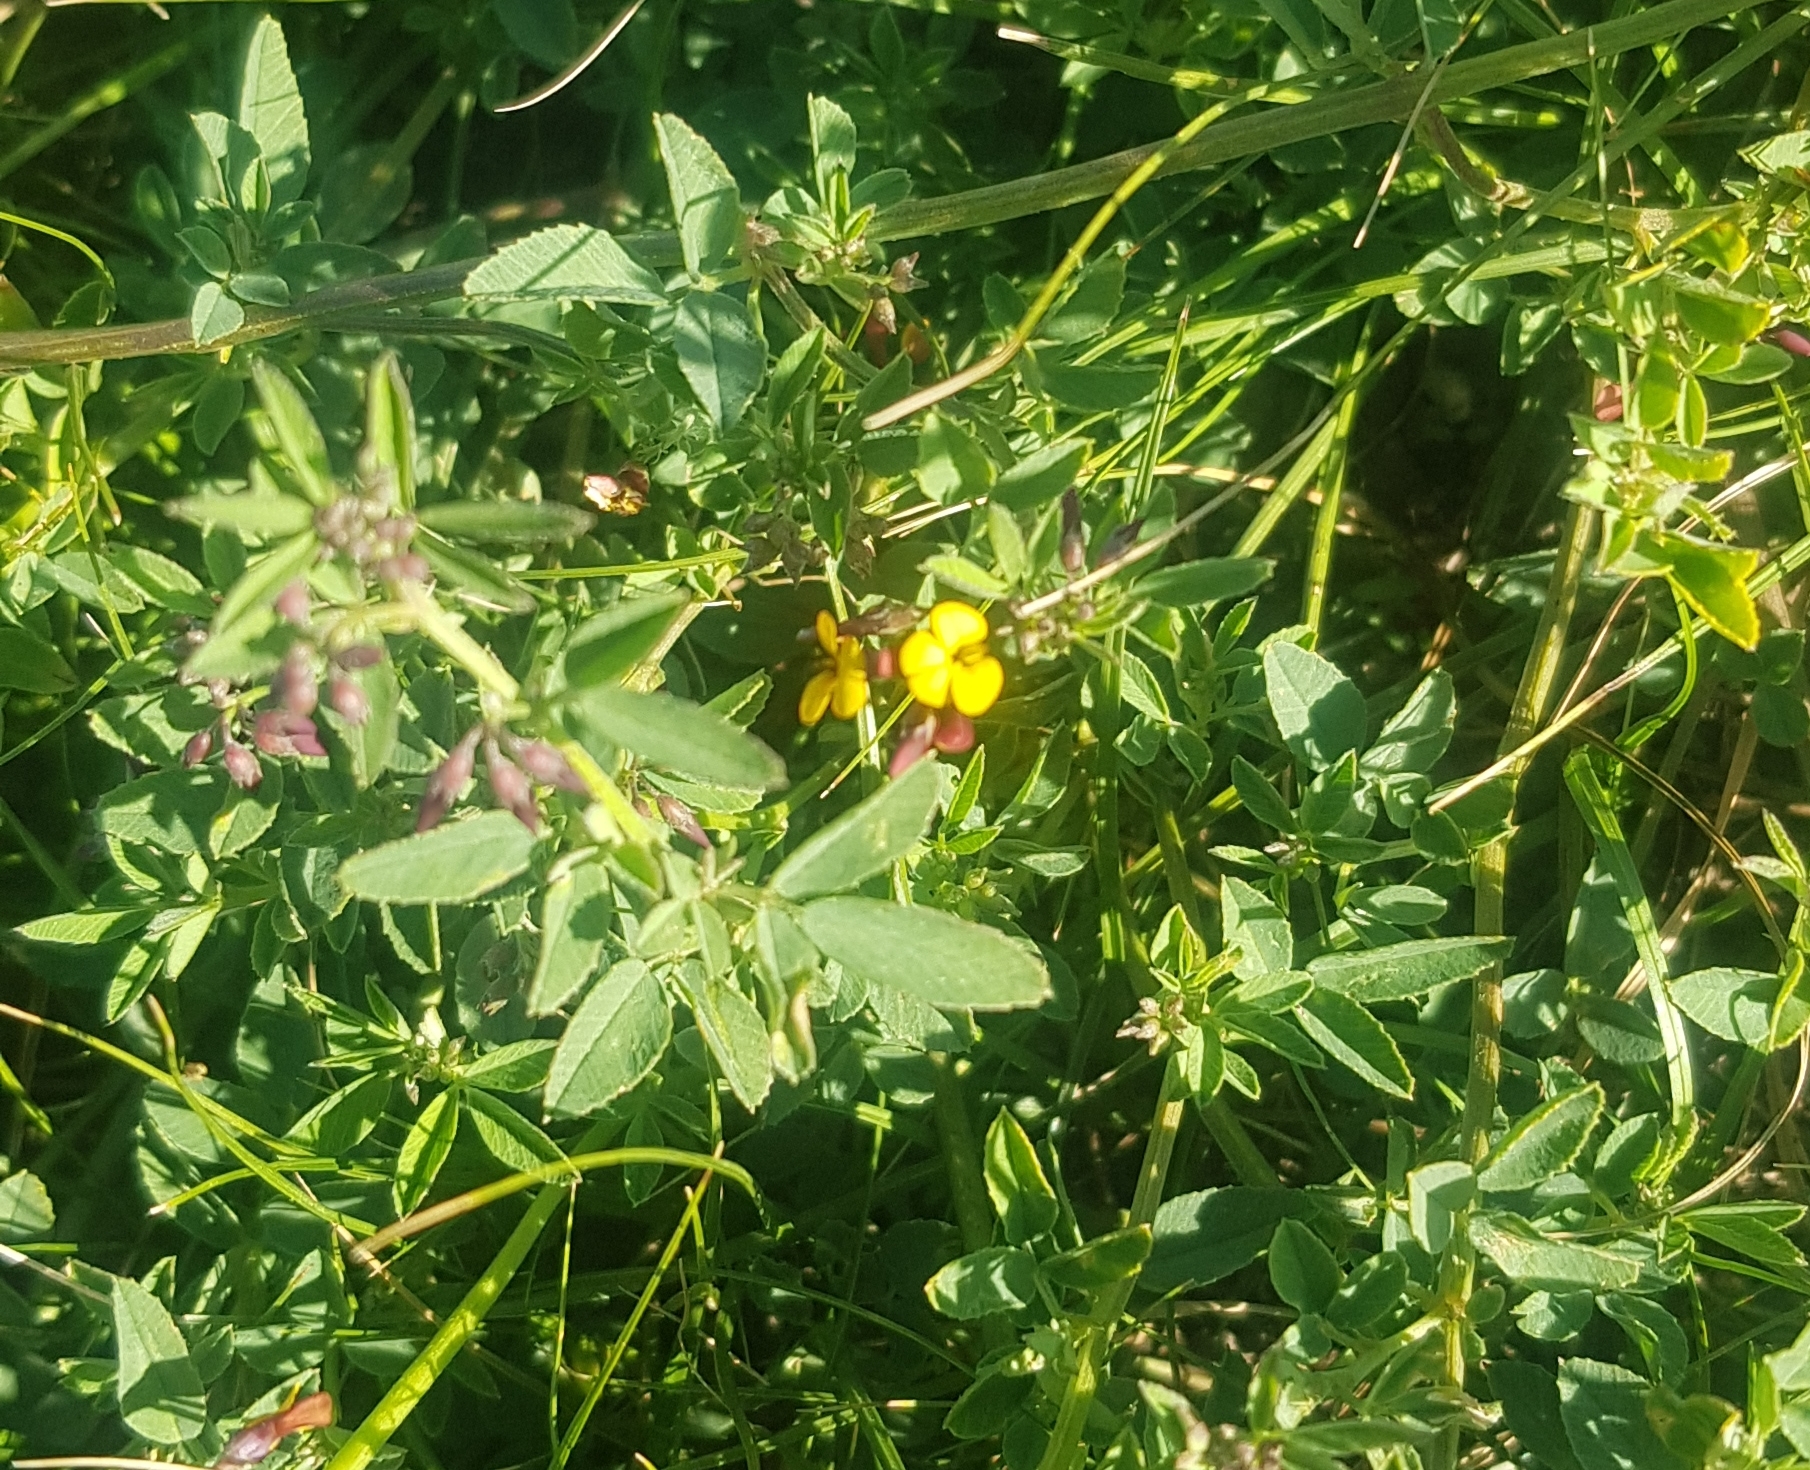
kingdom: Plantae
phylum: Tracheophyta
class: Magnoliopsida
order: Fabales
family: Fabaceae
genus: Medicago
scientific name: Medicago ruthenica
